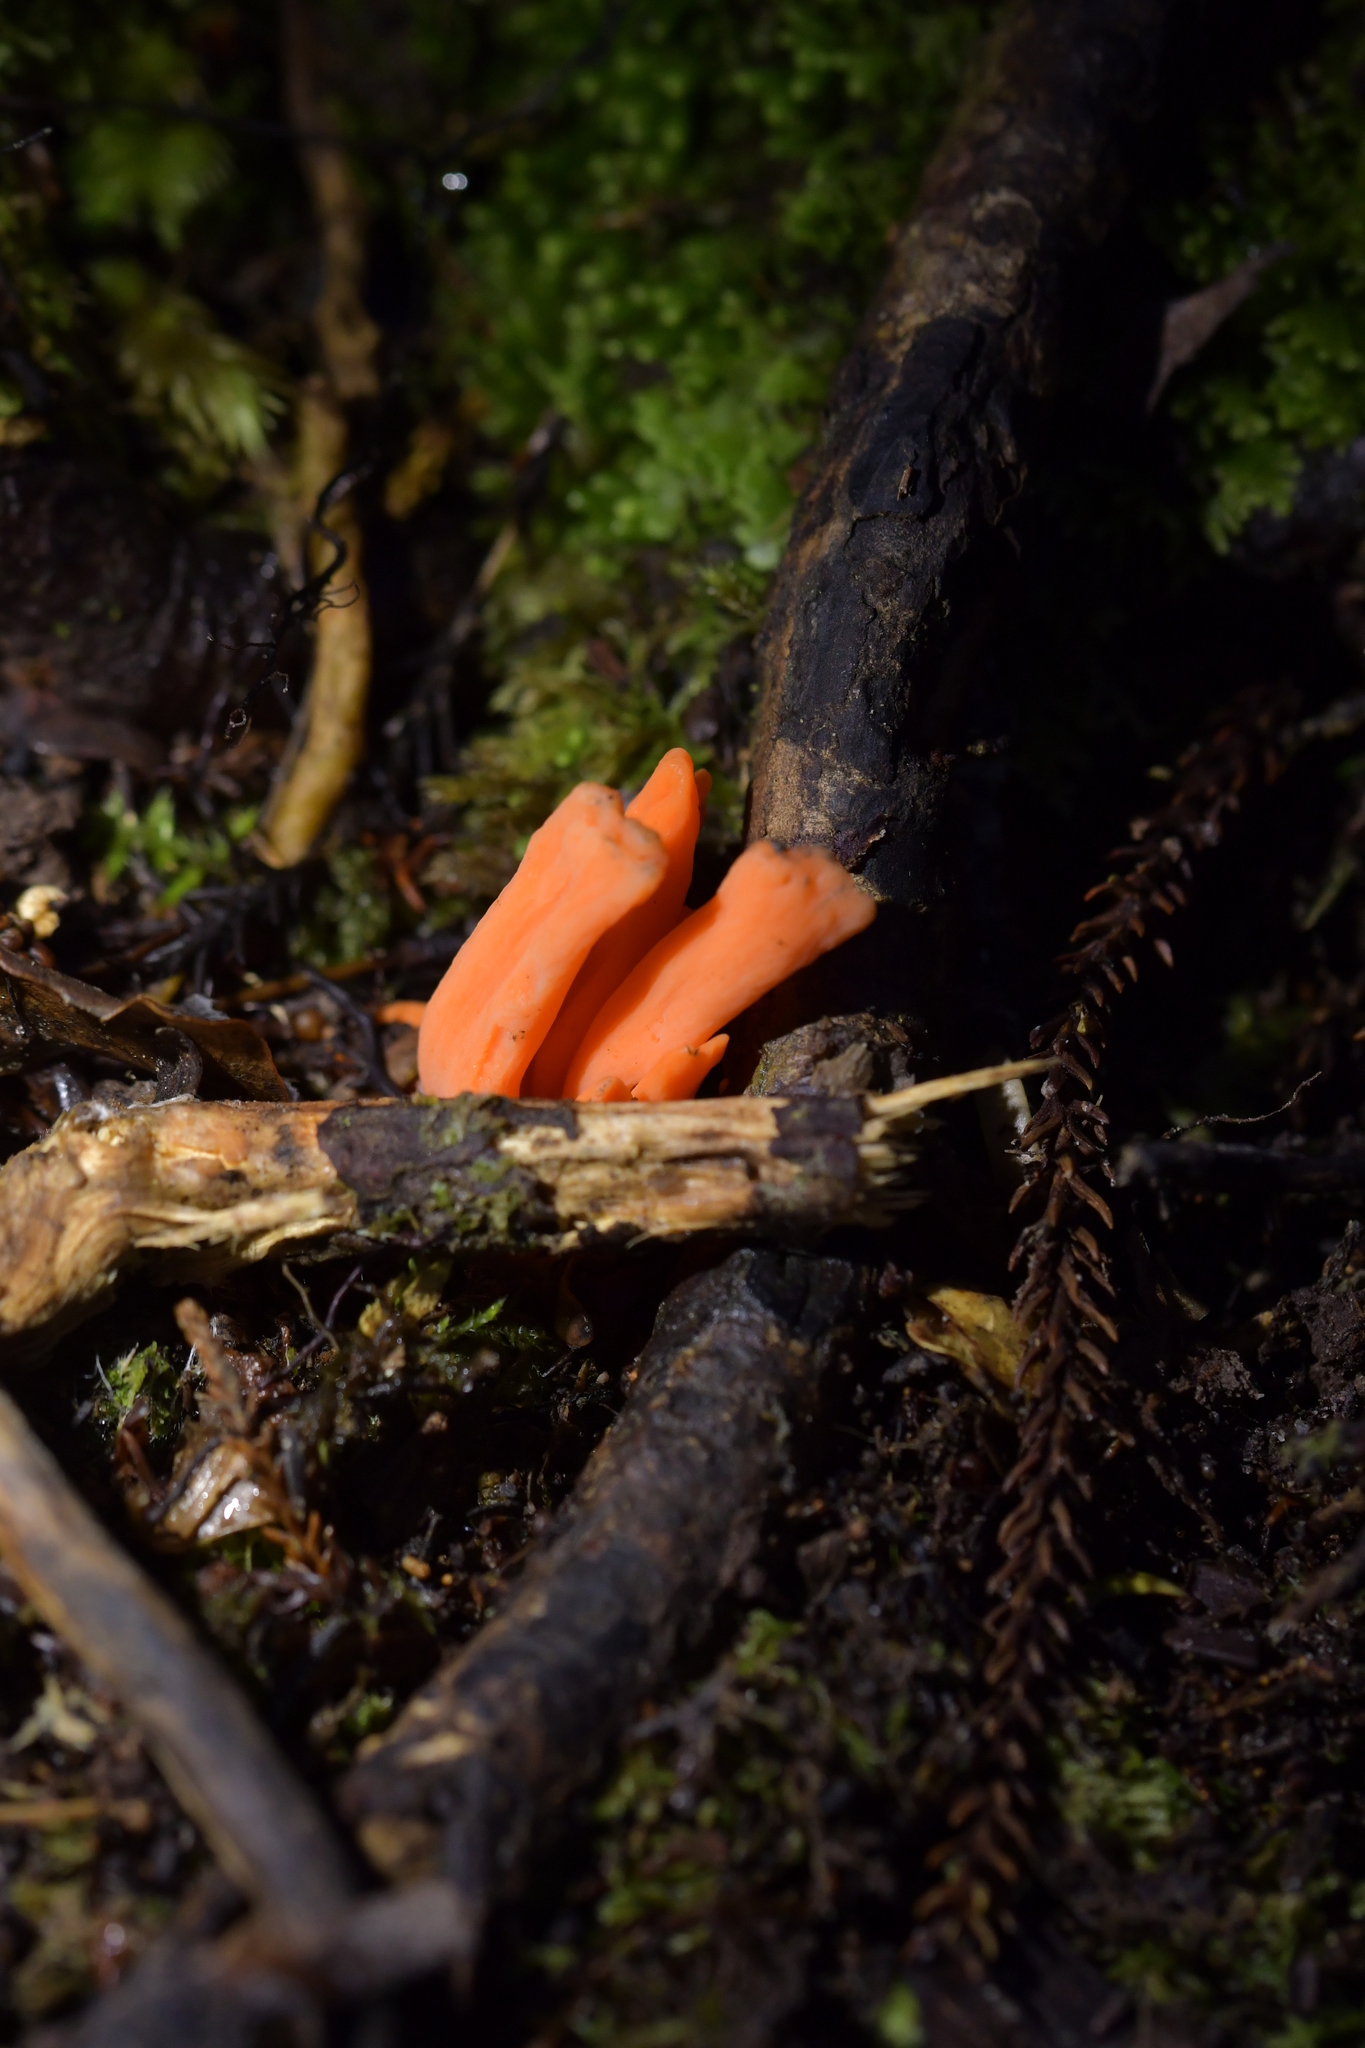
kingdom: Fungi
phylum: Basidiomycota
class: Agaricomycetes
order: Agaricales
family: Clavariaceae
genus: Clavulinopsis
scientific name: Clavulinopsis sulcata
